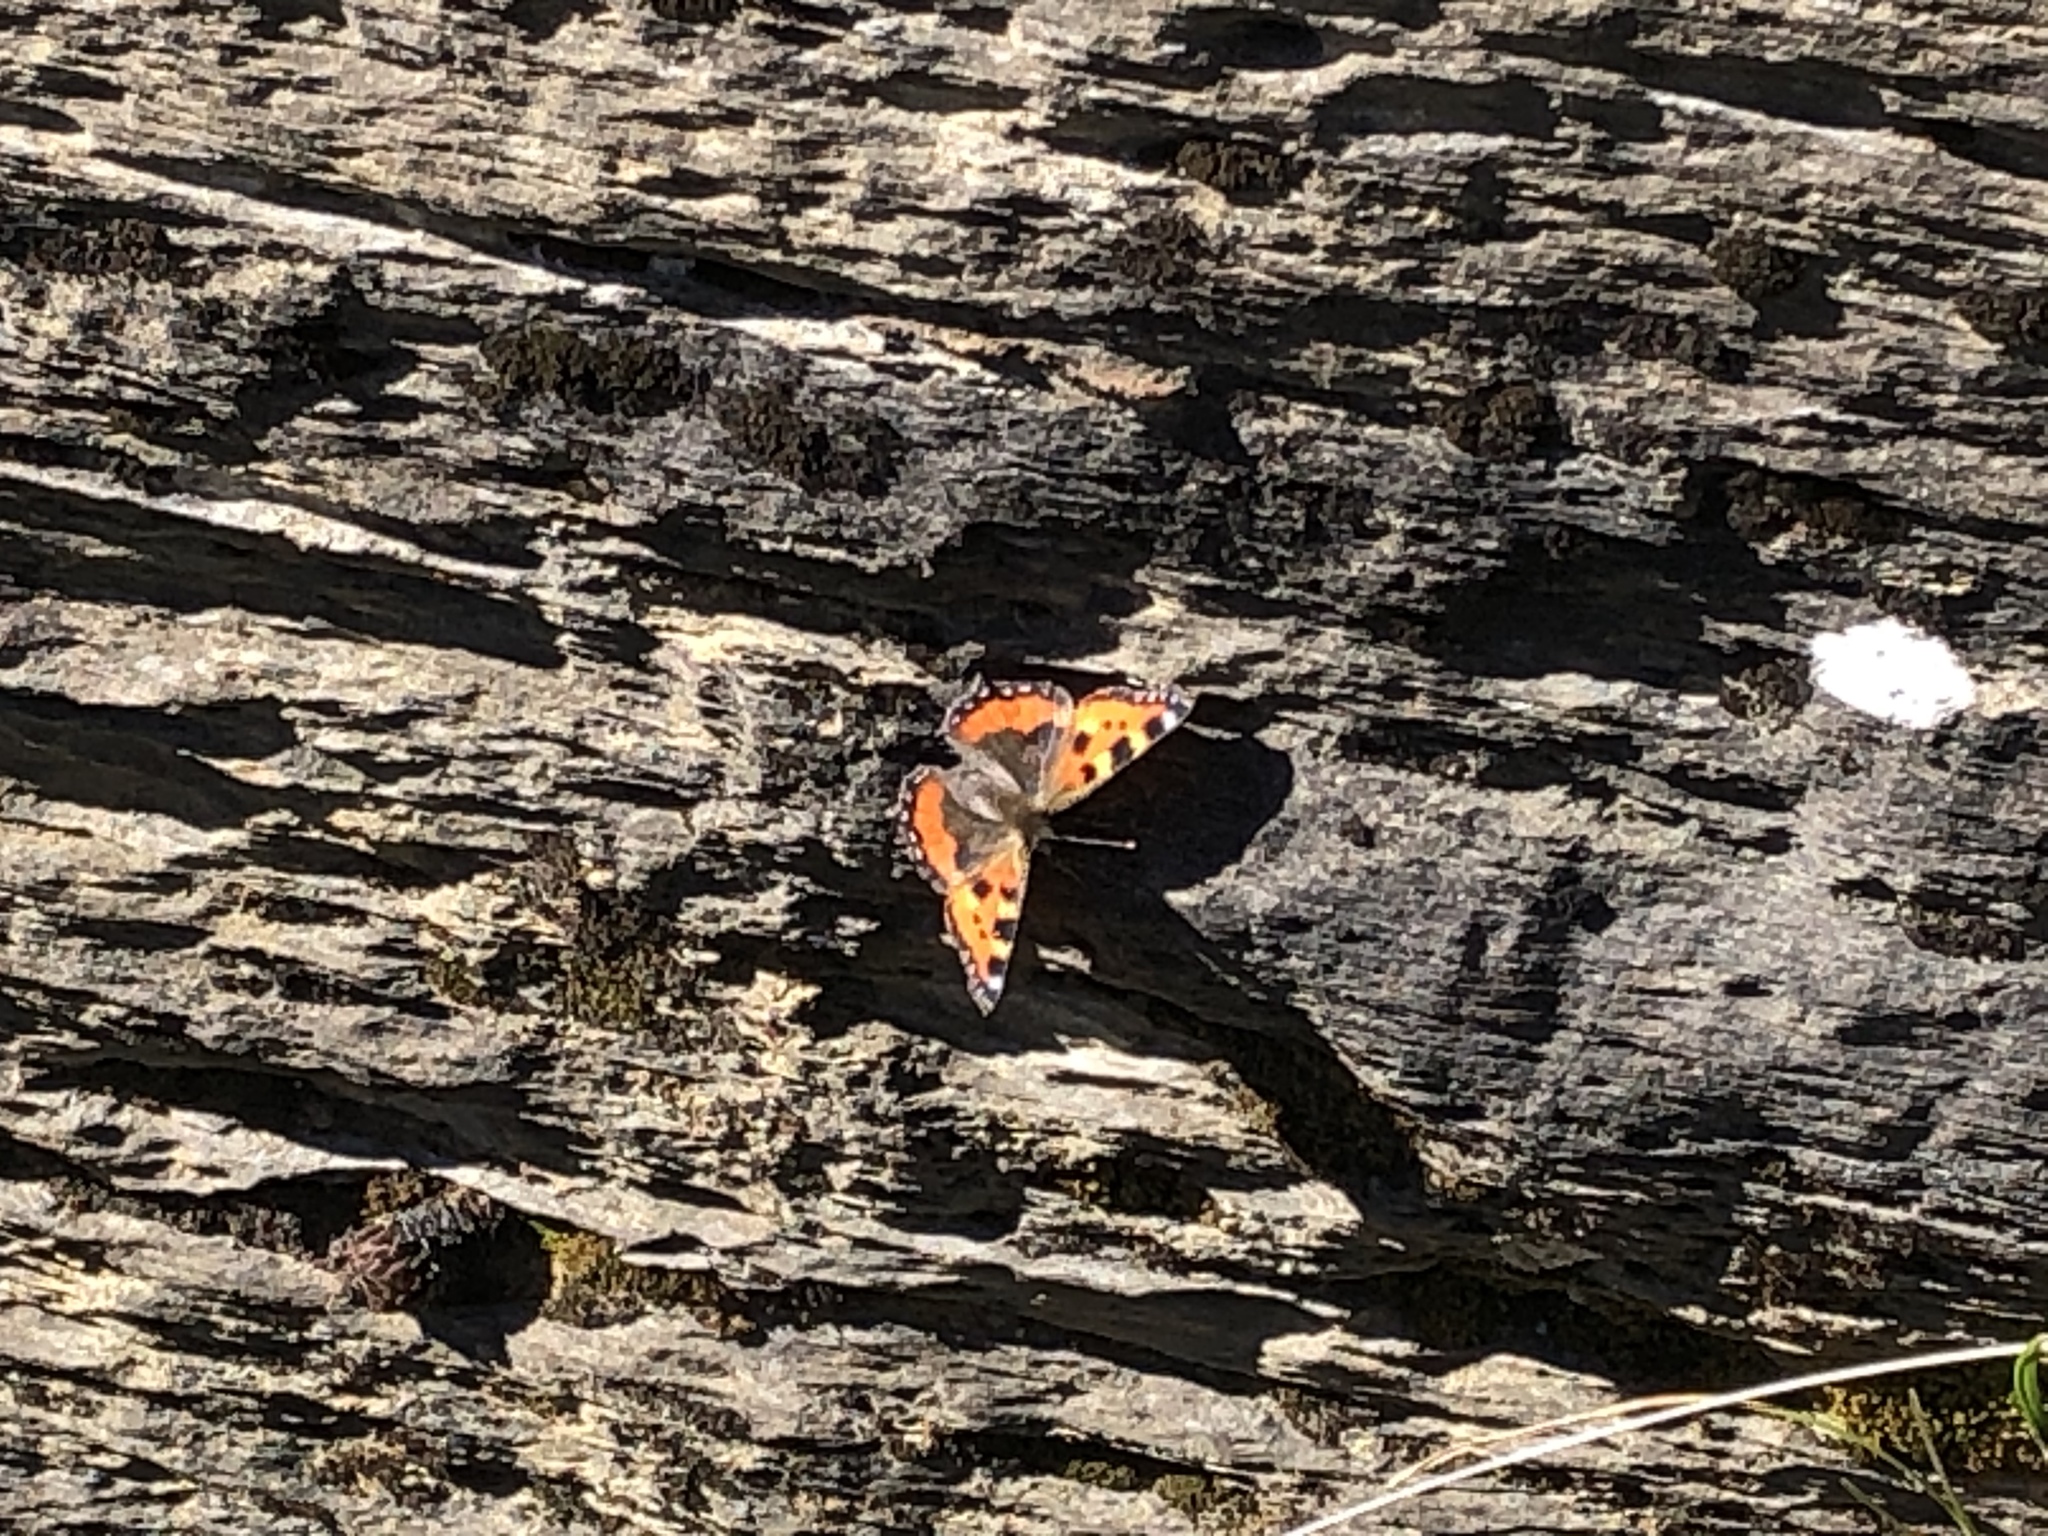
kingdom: Animalia
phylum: Arthropoda
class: Insecta
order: Lepidoptera
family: Nymphalidae
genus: Aglais
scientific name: Aglais urticae
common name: Small tortoiseshell
